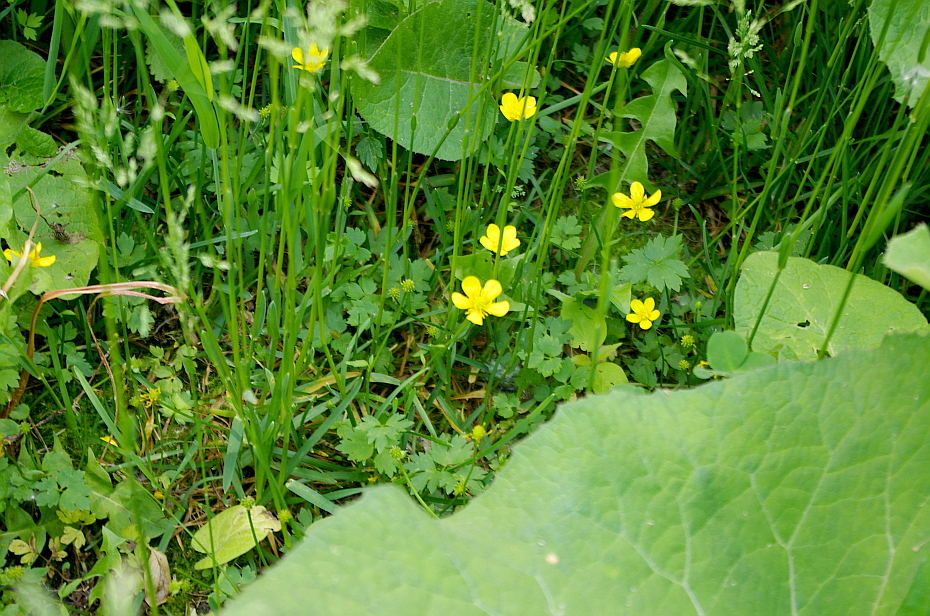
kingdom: Plantae
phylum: Tracheophyta
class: Magnoliopsida
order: Ranunculales
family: Ranunculaceae
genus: Ranunculus
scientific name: Ranunculus repens
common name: Creeping buttercup
